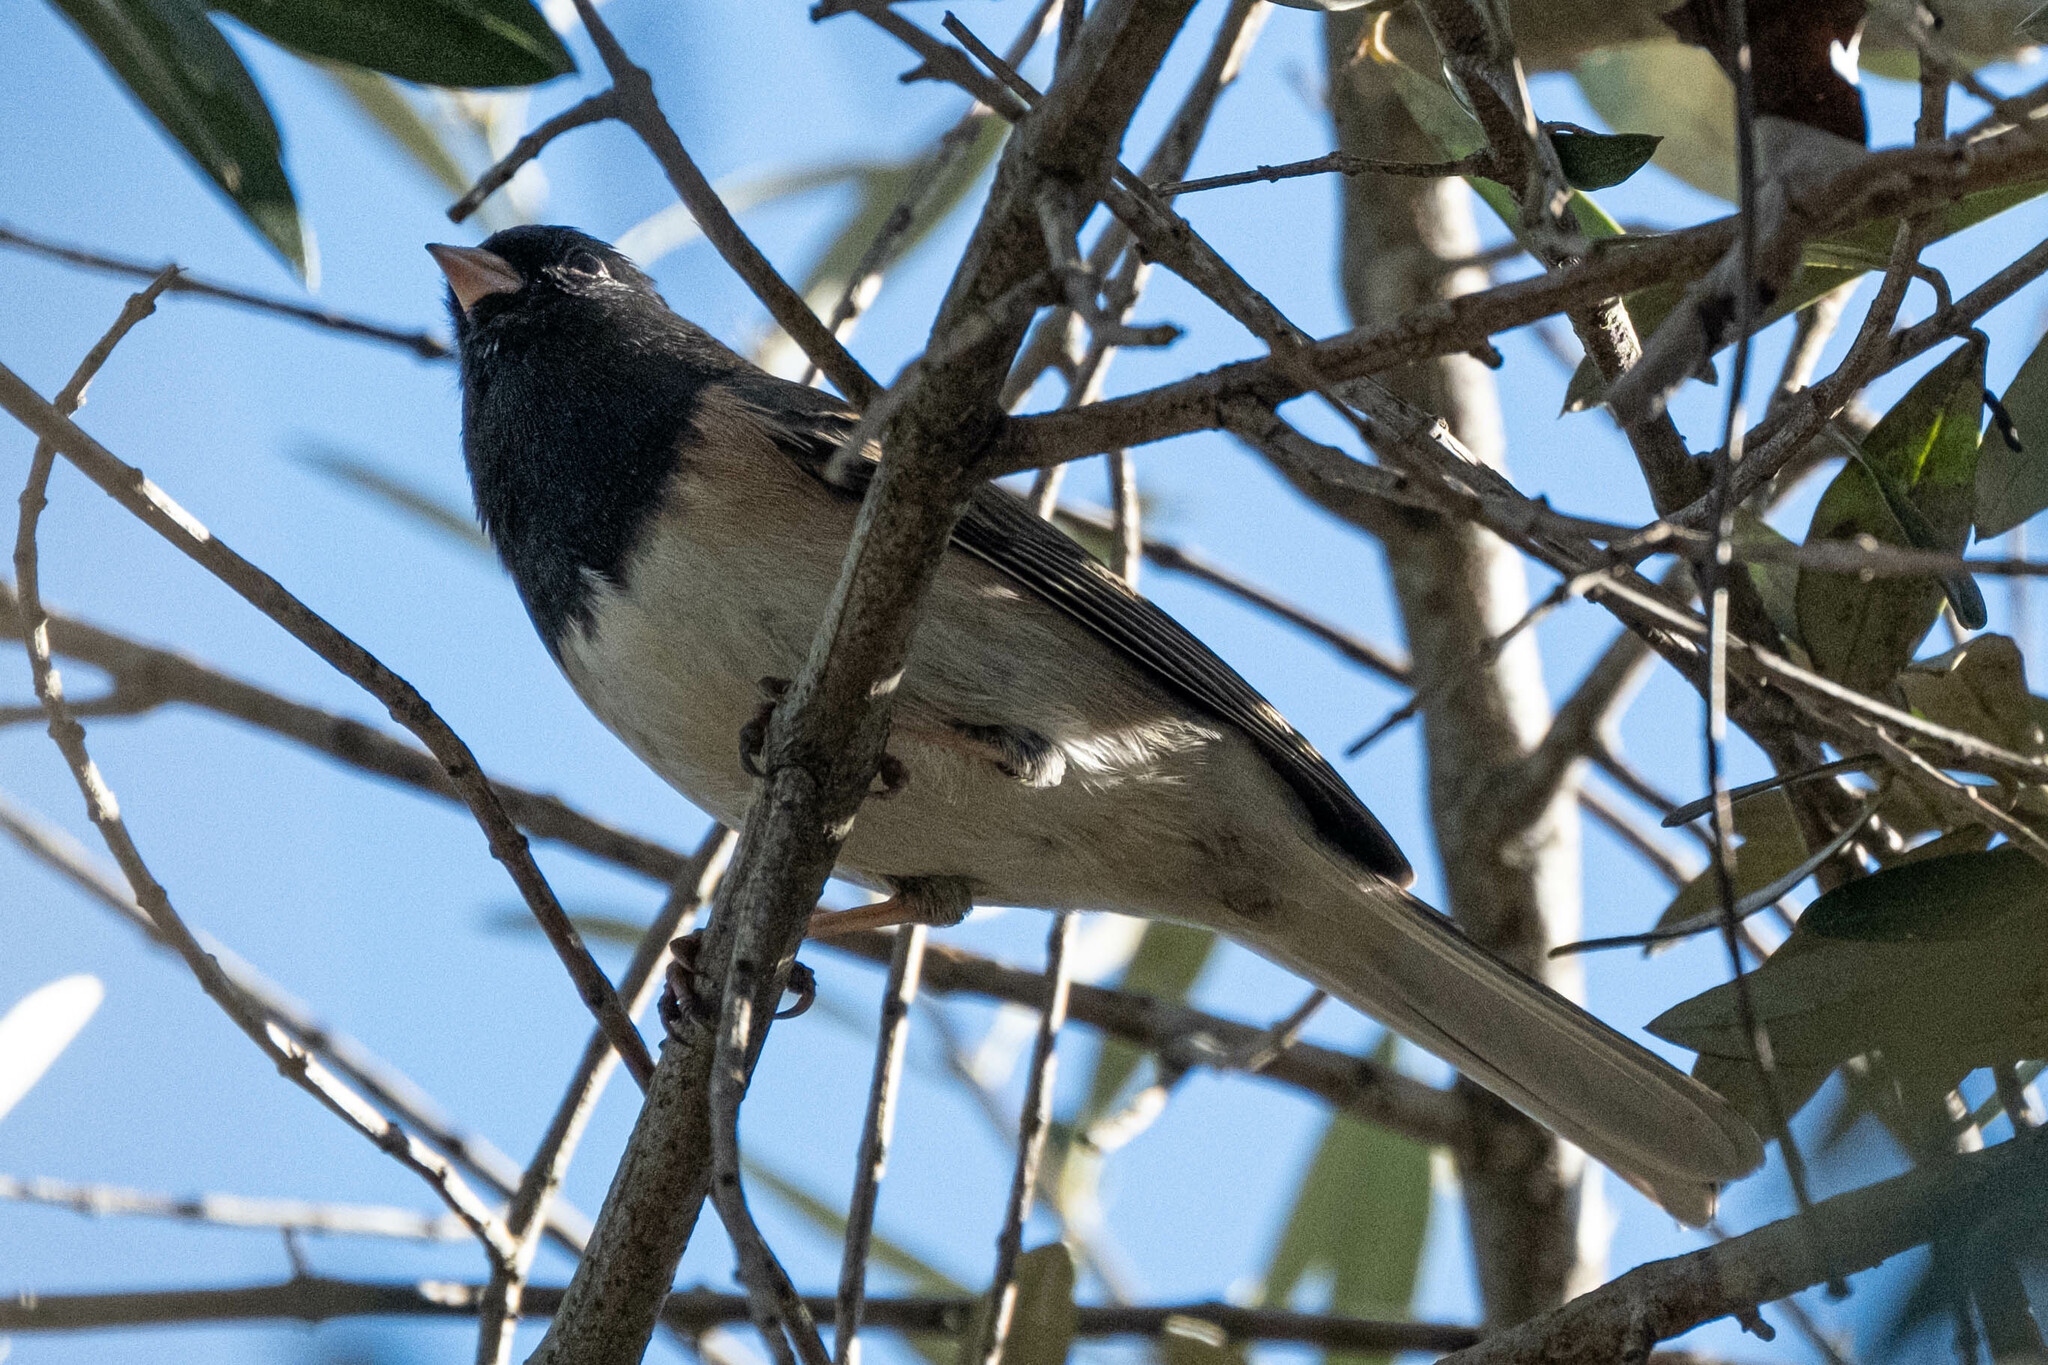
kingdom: Animalia
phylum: Chordata
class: Aves
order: Passeriformes
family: Passerellidae
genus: Junco
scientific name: Junco hyemalis
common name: Dark-eyed junco
